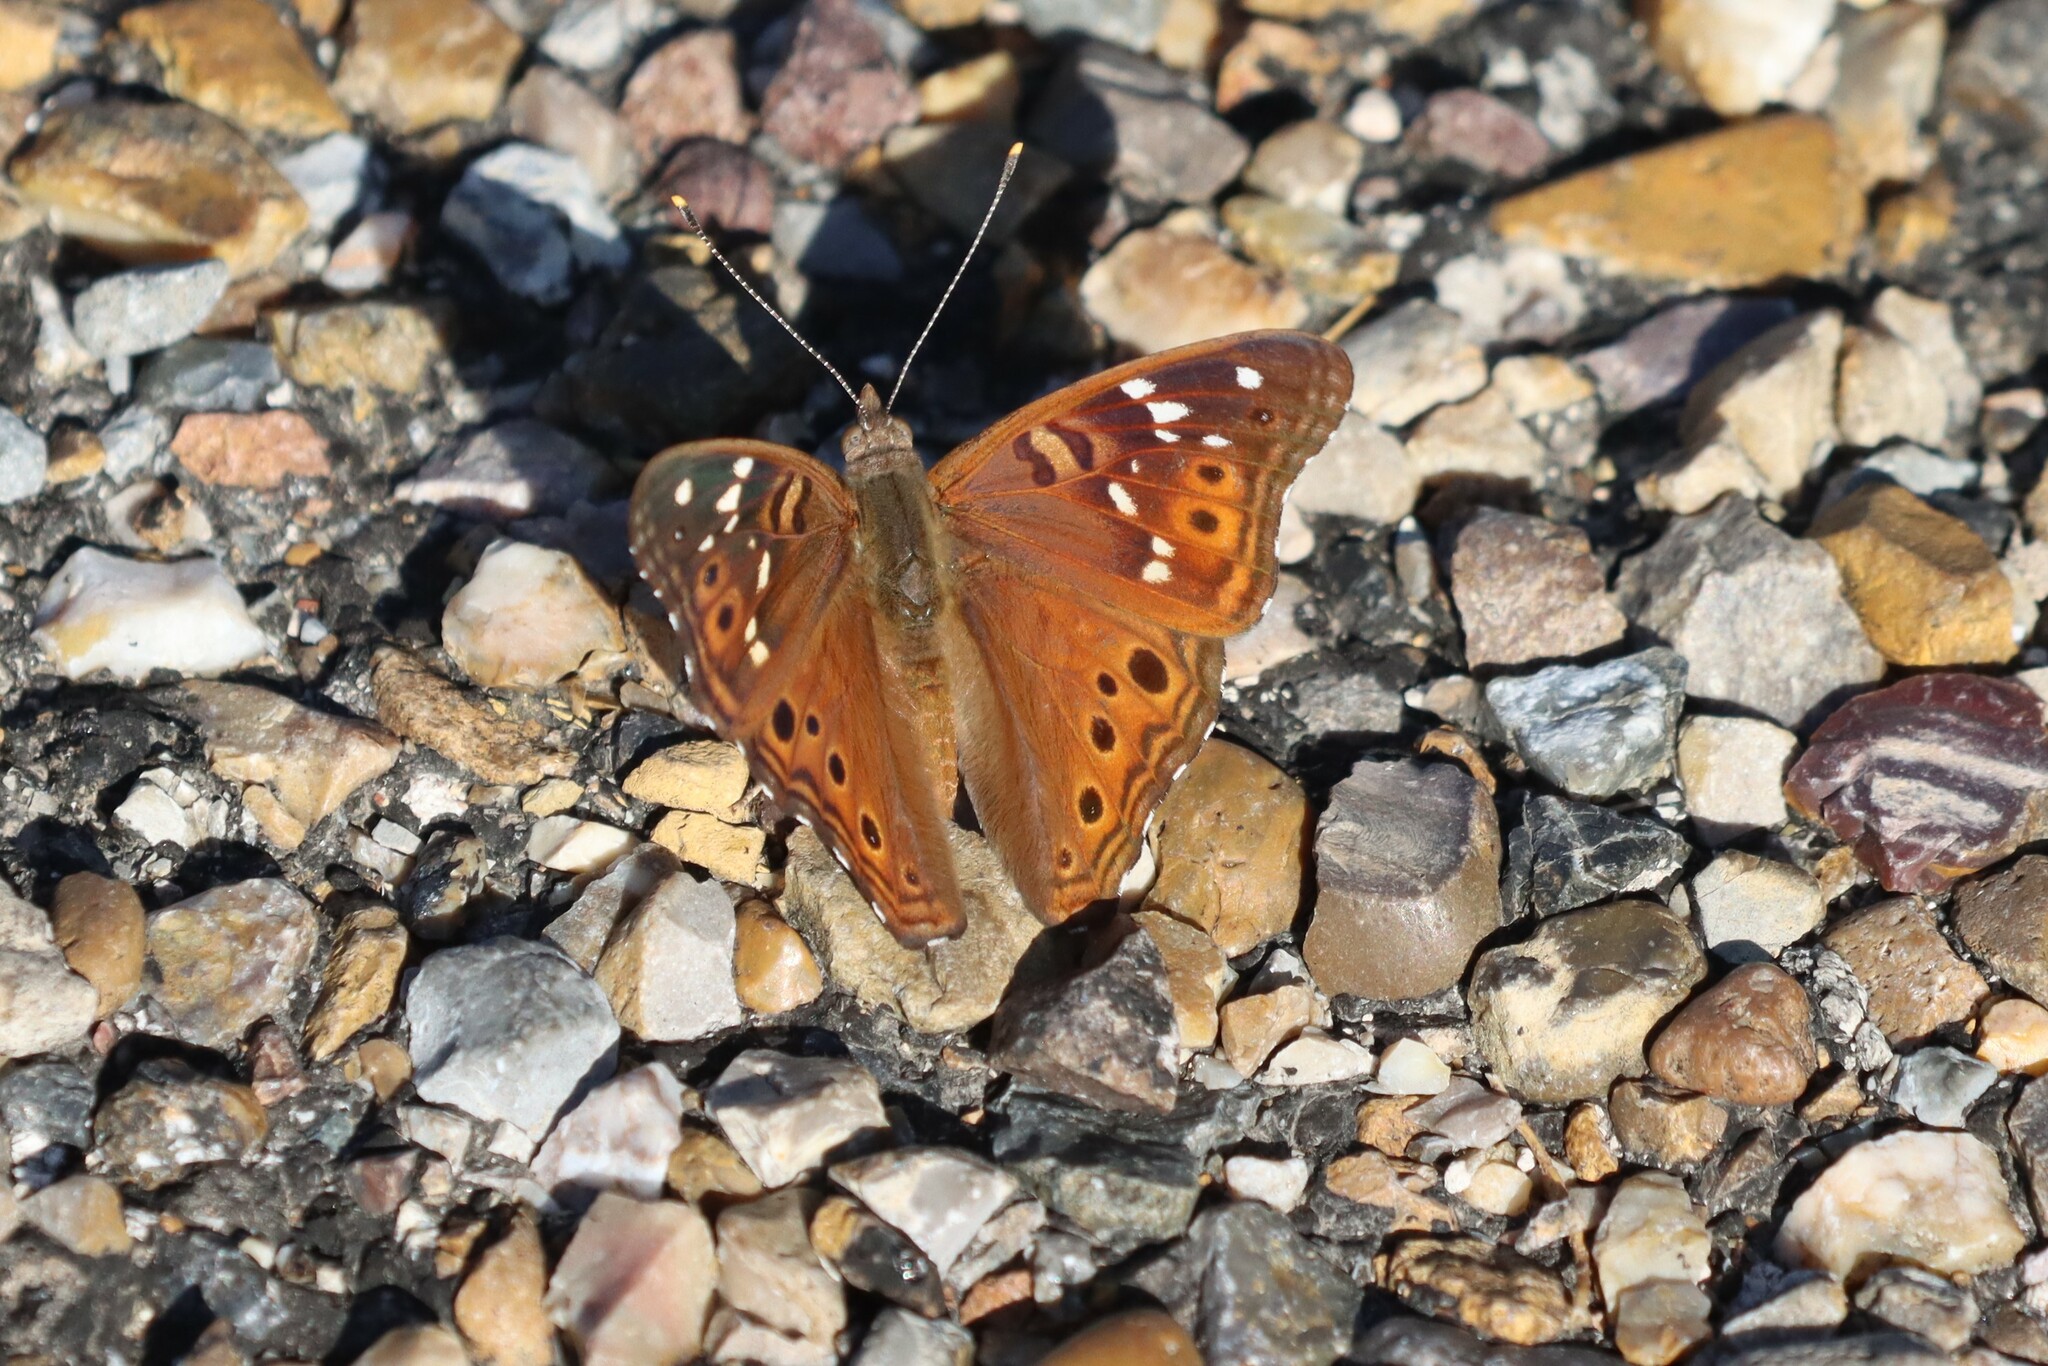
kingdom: Animalia
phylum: Arthropoda
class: Insecta
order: Lepidoptera
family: Nymphalidae
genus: Asterocampa
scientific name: Asterocampa leilia
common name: Empress leilia
